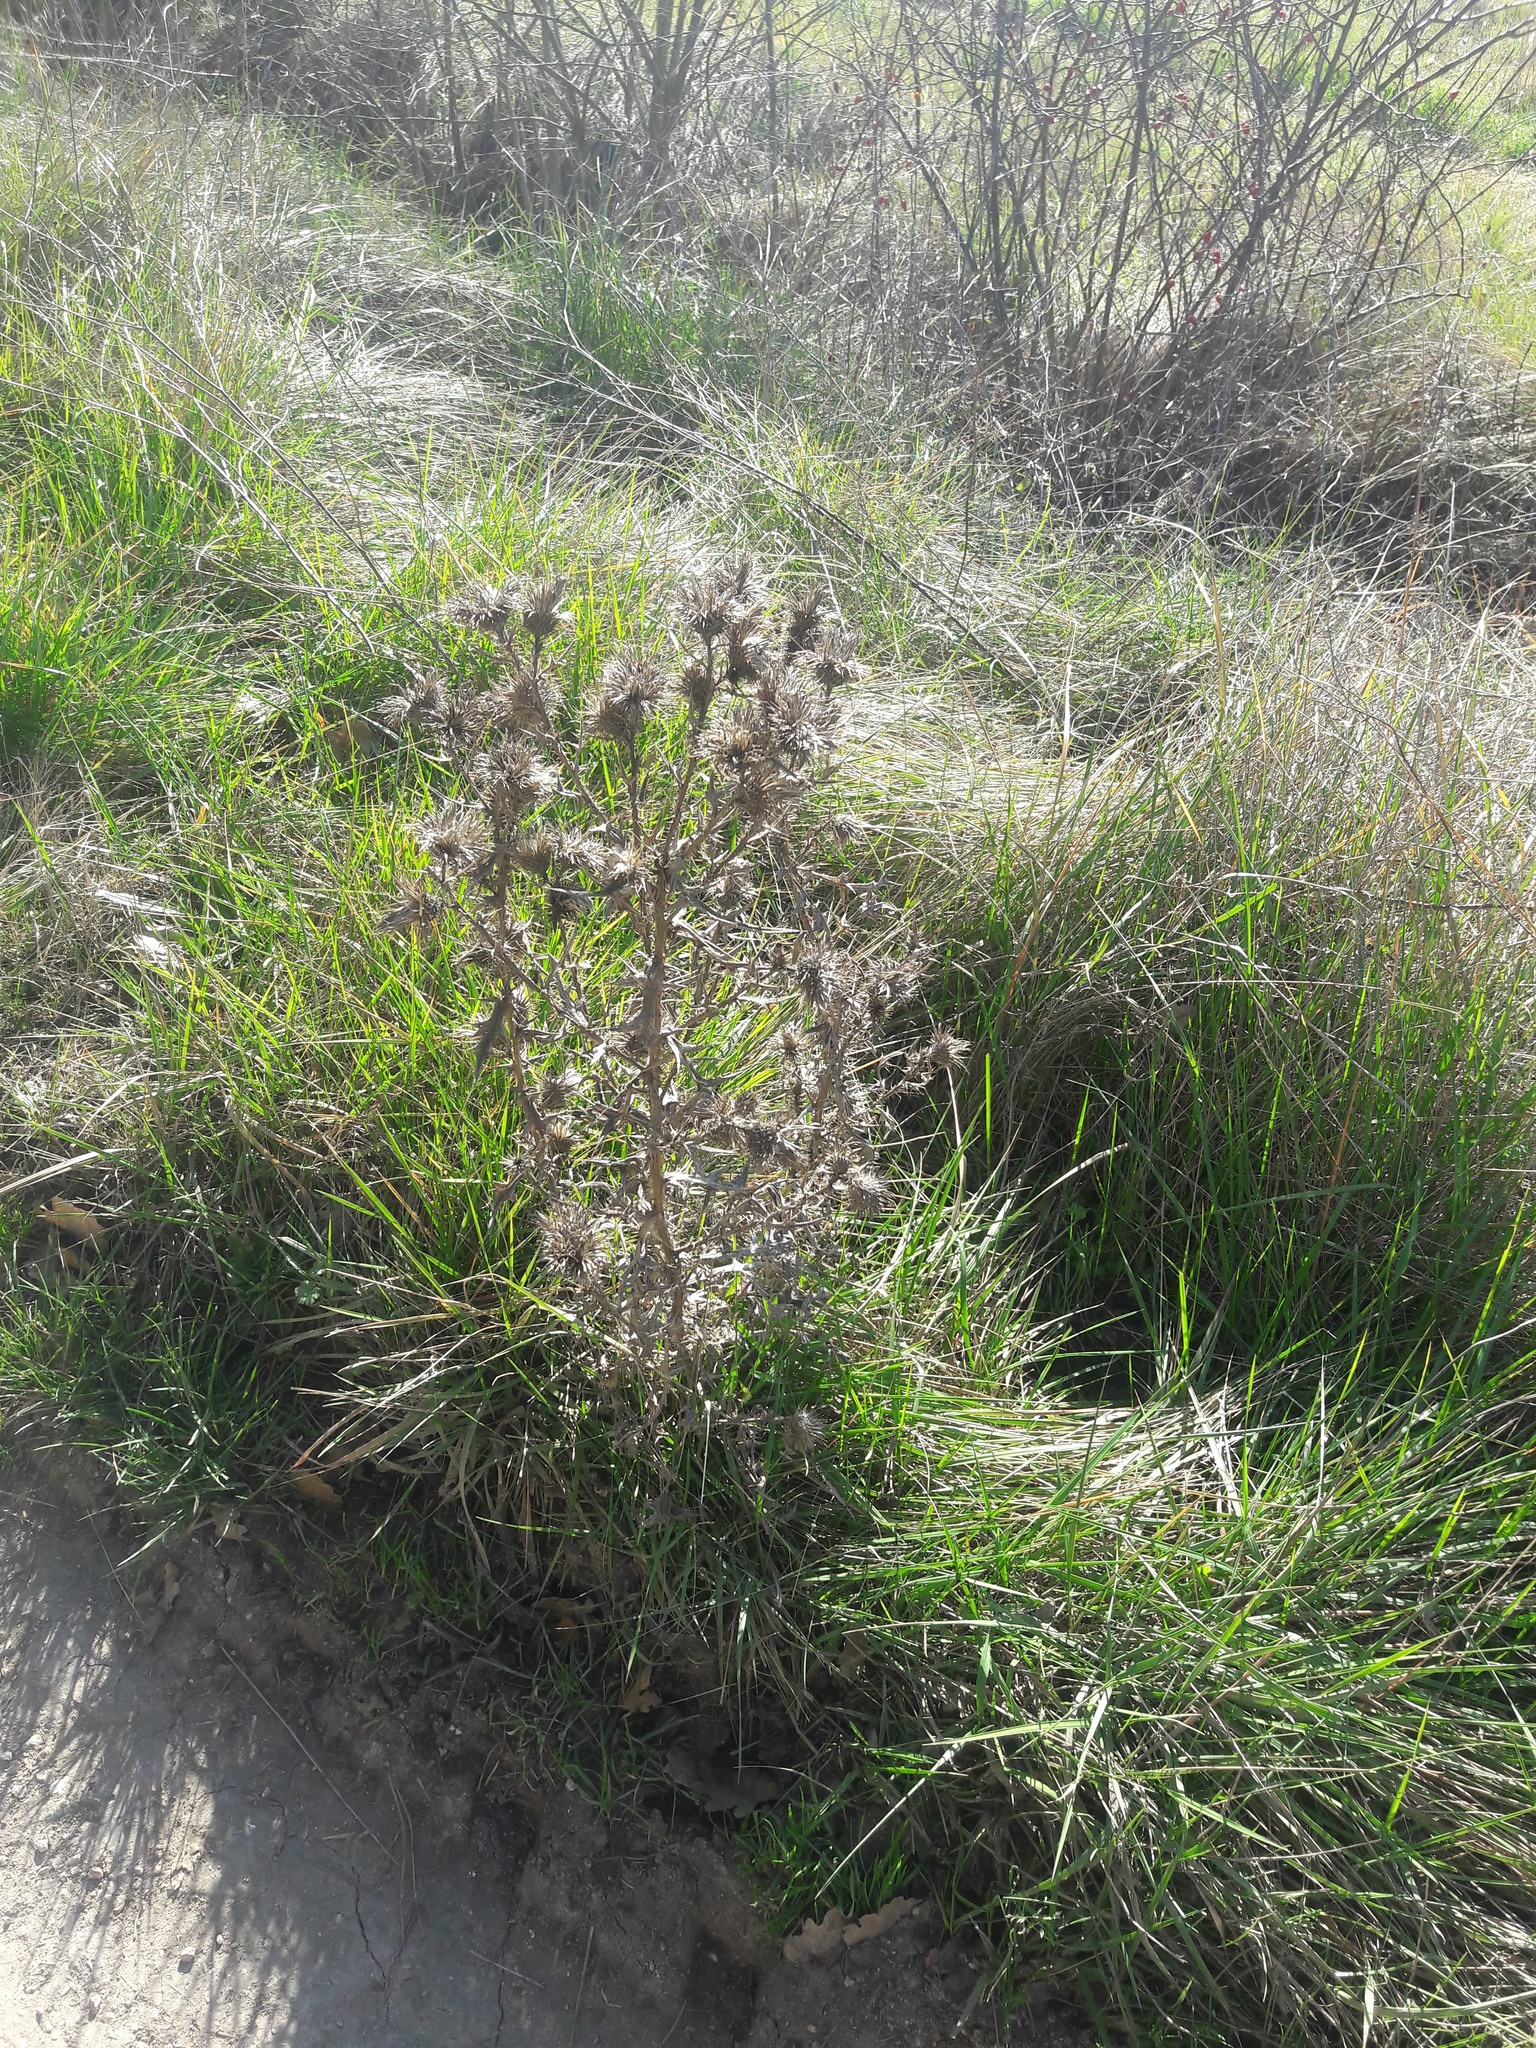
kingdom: Plantae
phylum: Tracheophyta
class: Magnoliopsida
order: Asterales
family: Asteraceae
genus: Cirsium
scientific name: Cirsium vulgare
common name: Bull thistle
